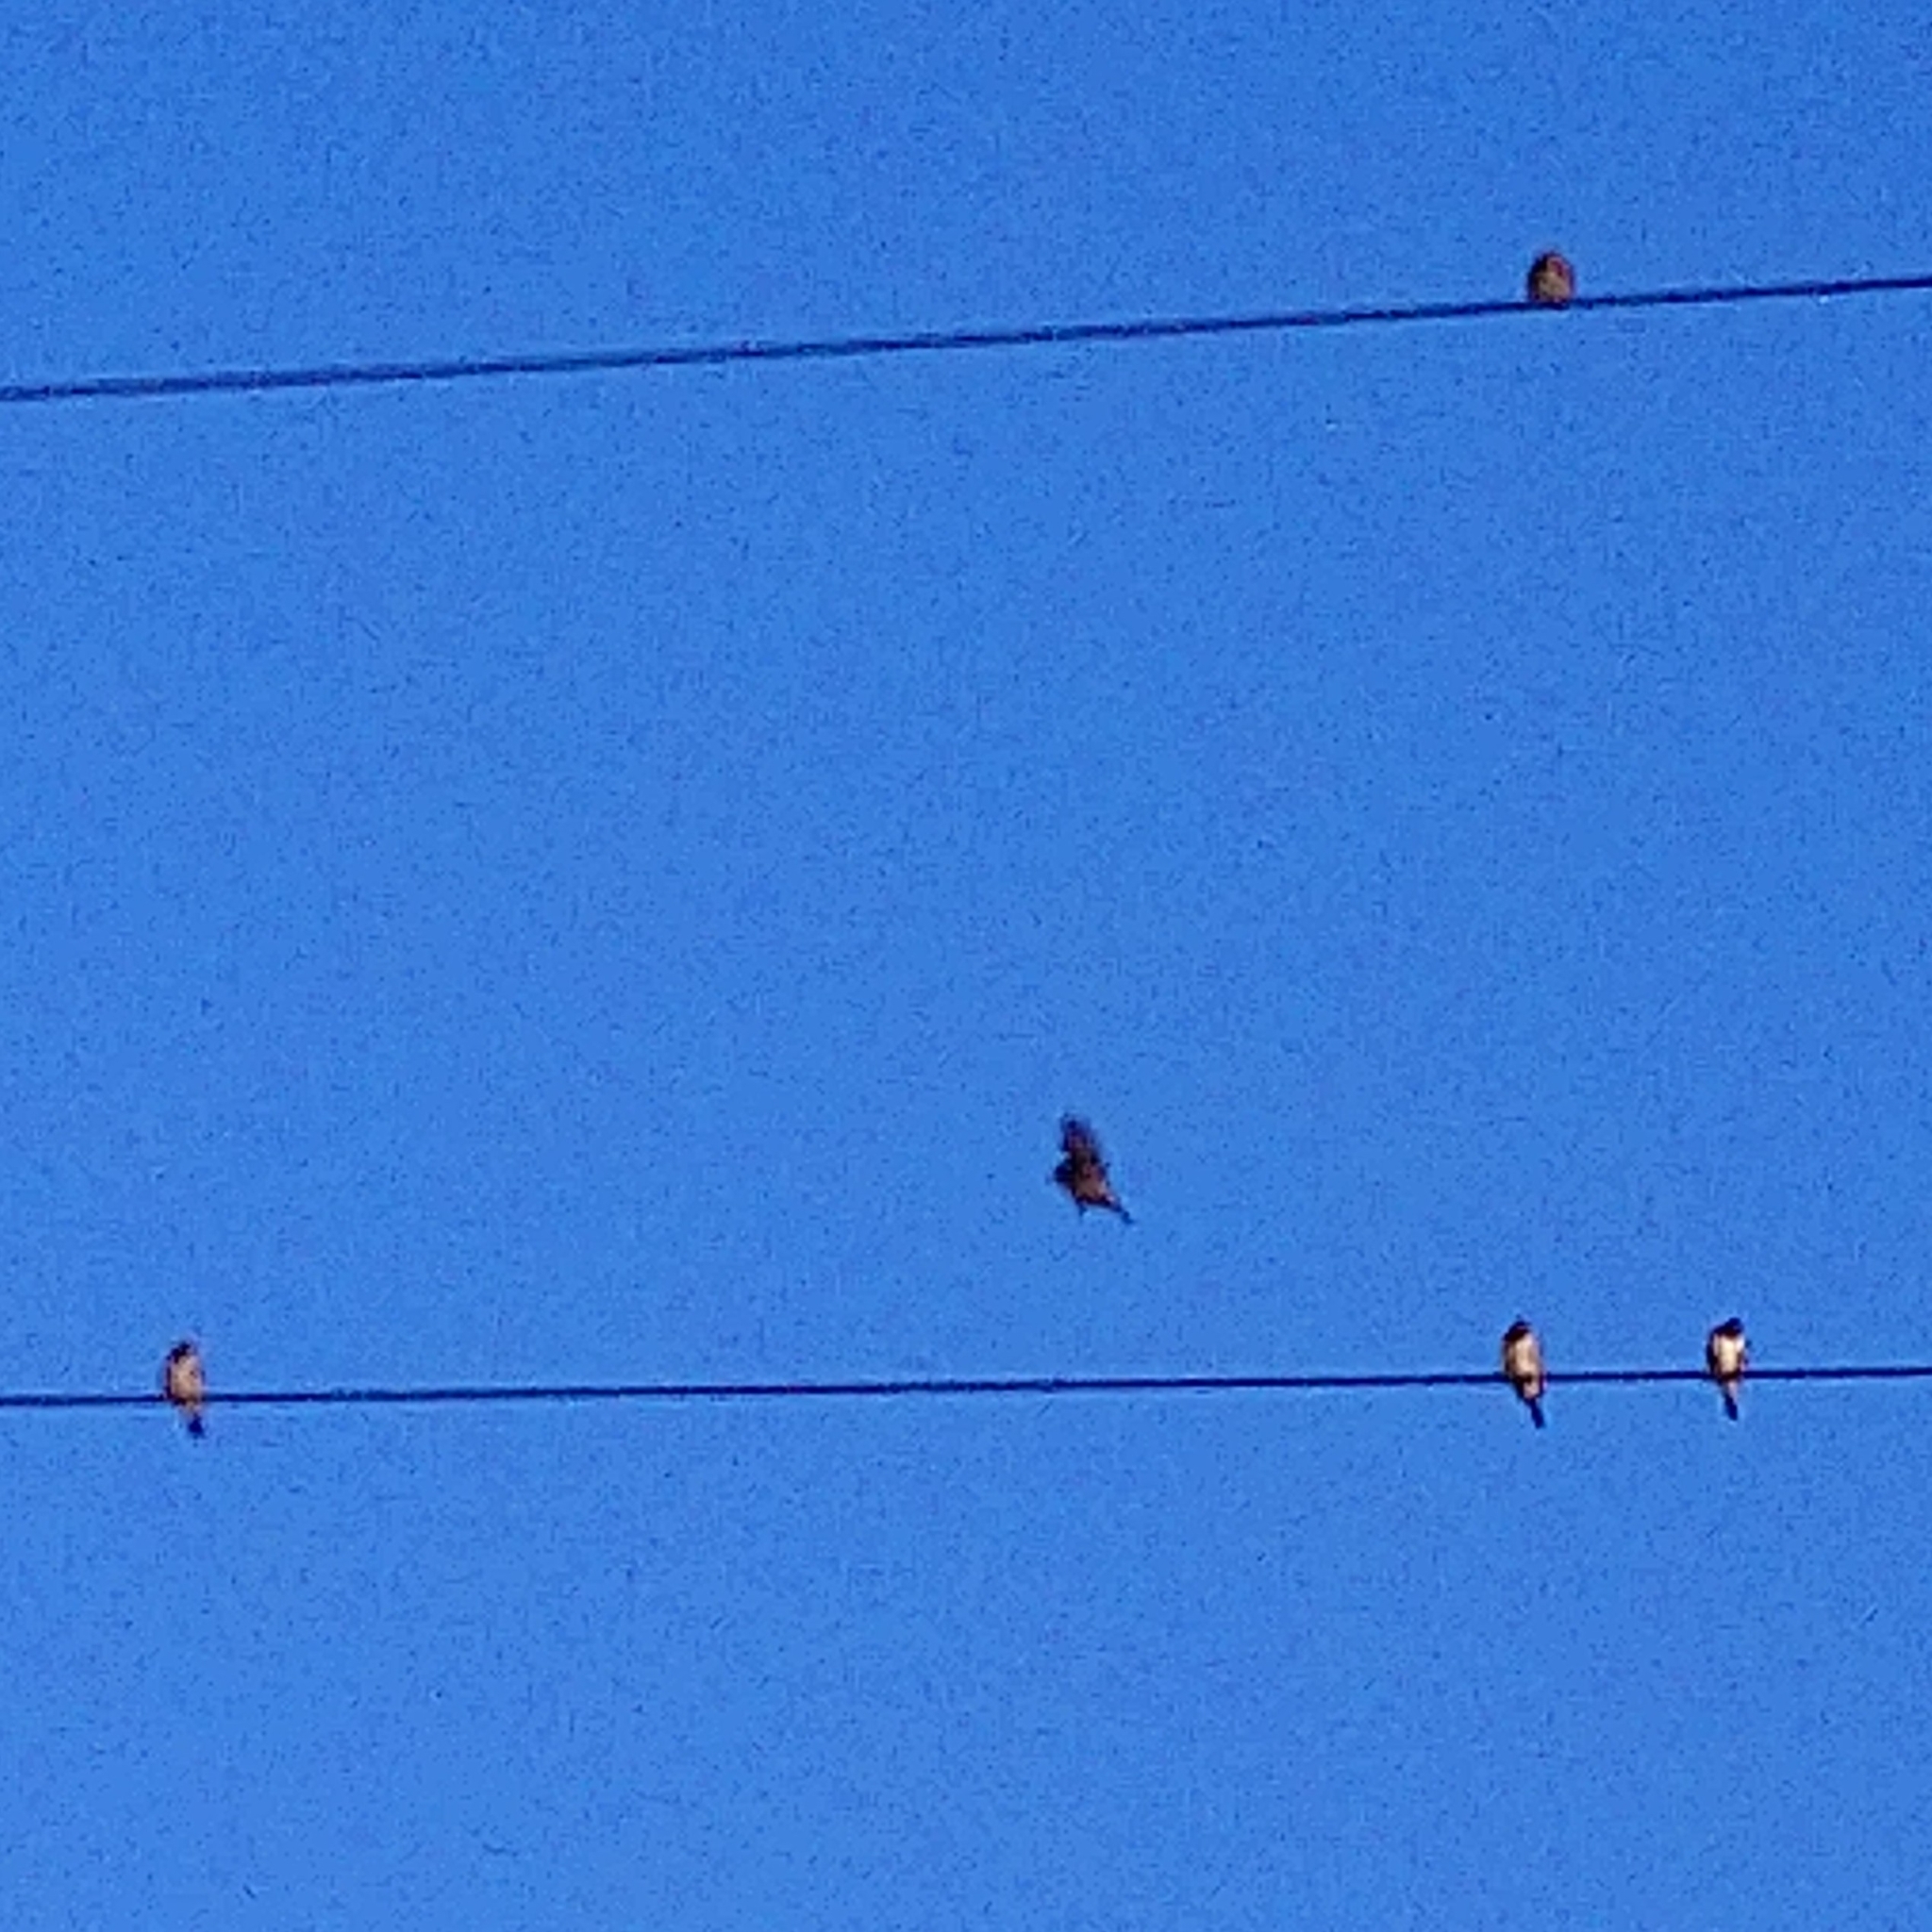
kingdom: Animalia
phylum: Chordata
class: Aves
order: Passeriformes
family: Estrildidae
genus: Lonchura
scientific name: Lonchura cucullata
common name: Bronze mannikin
